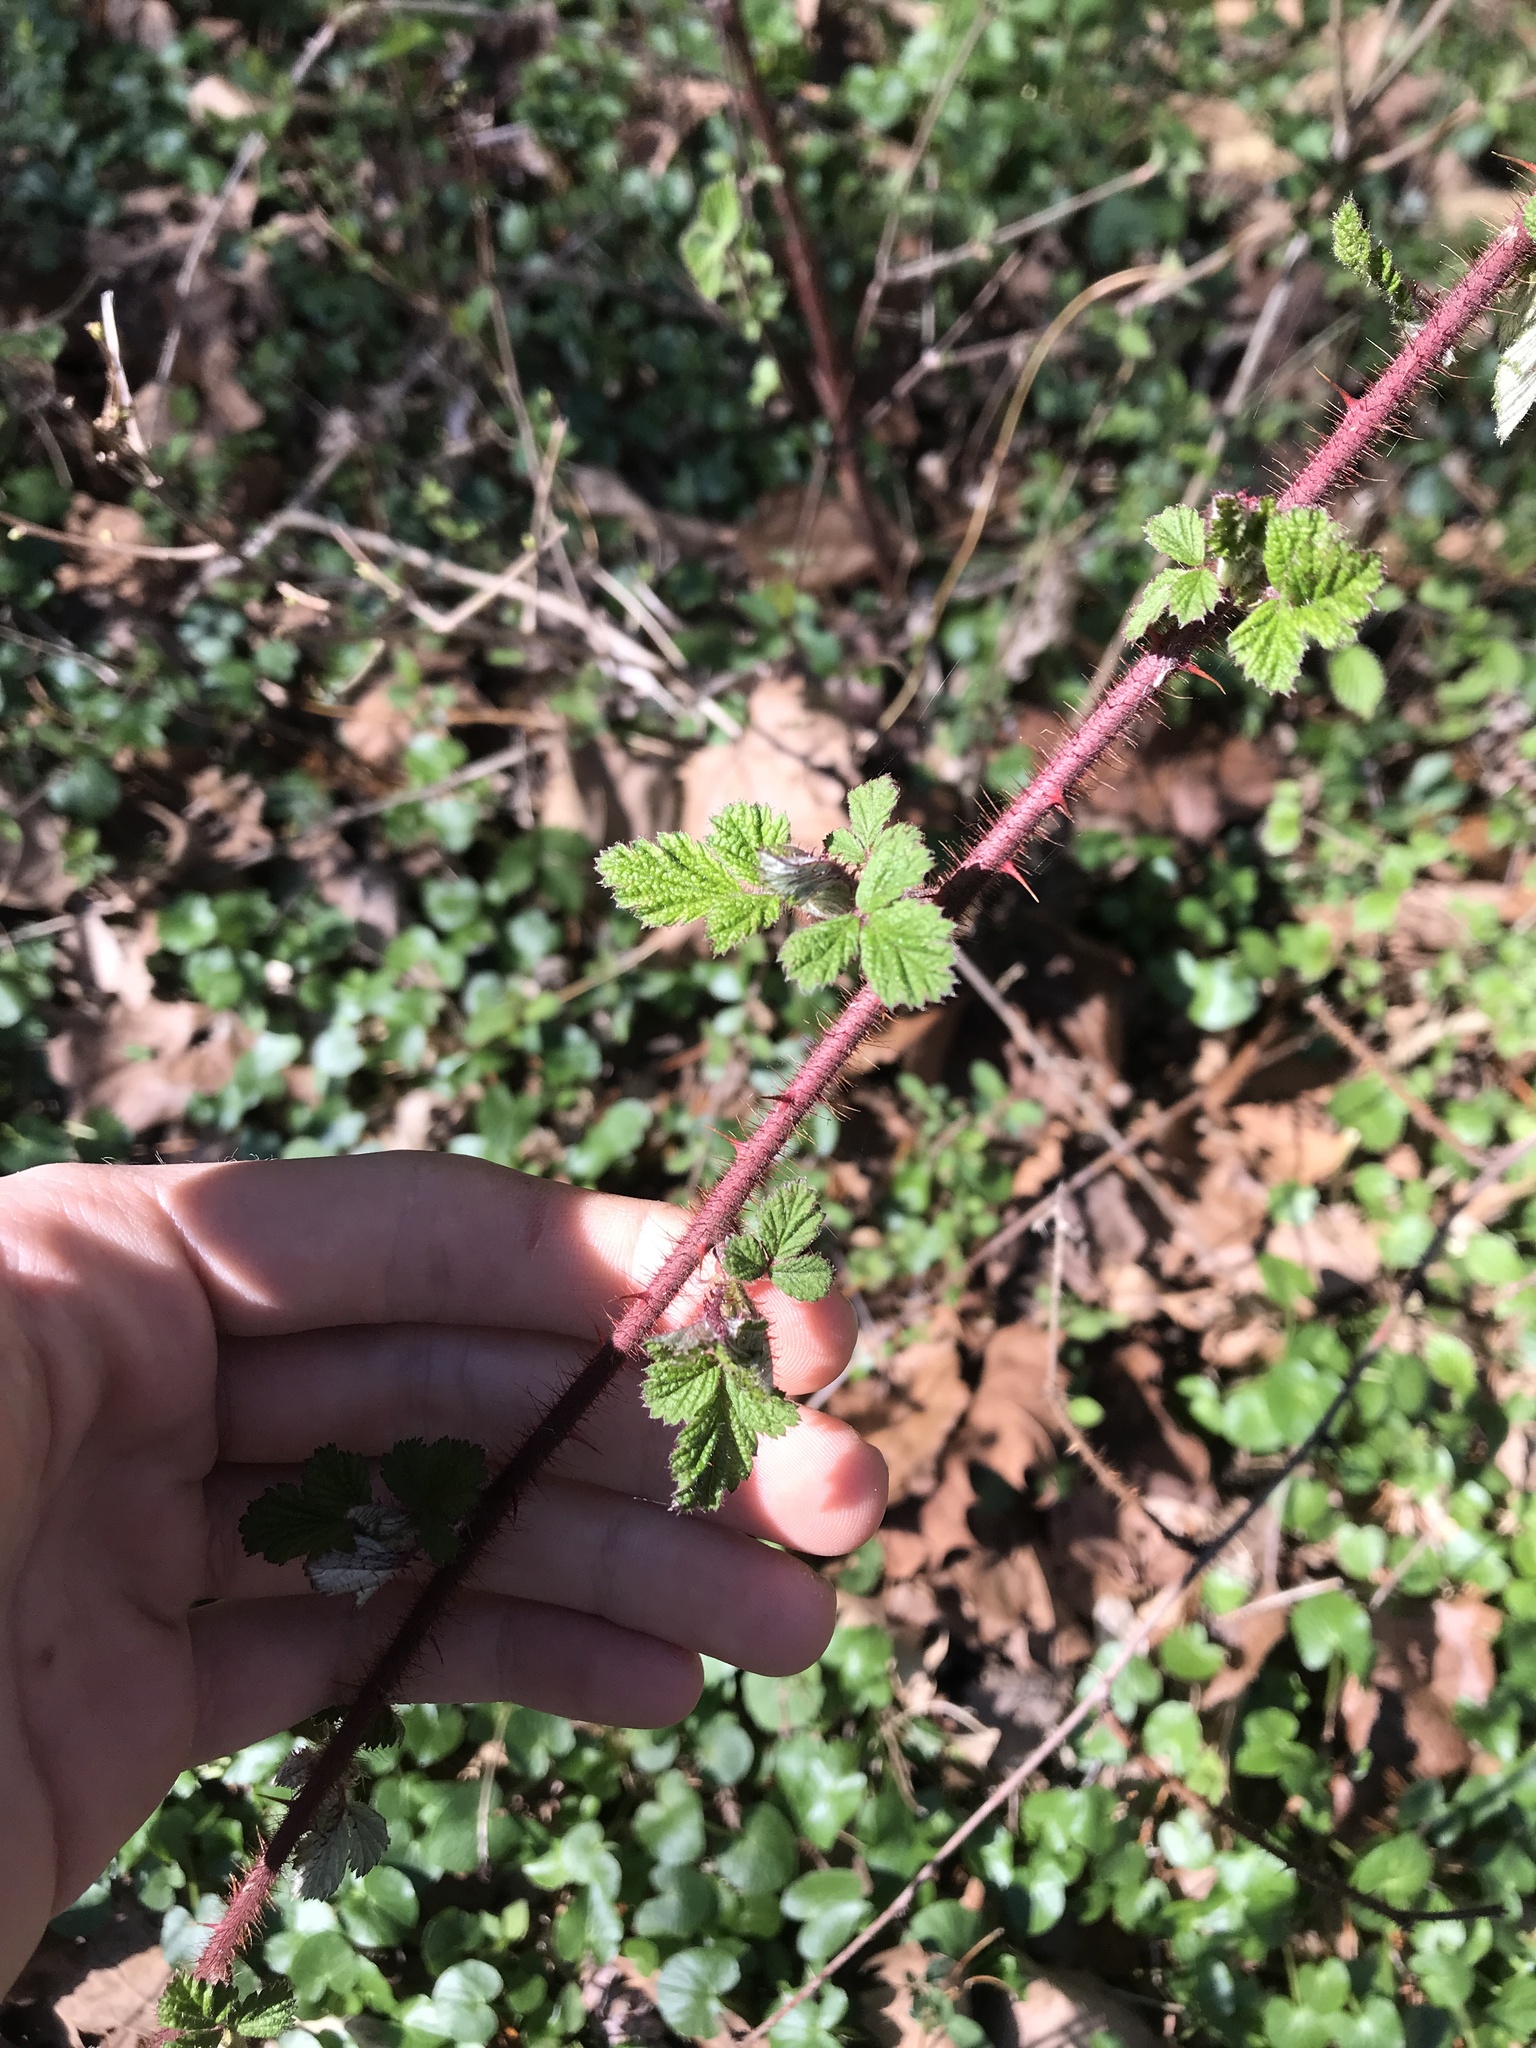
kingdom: Plantae
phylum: Tracheophyta
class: Magnoliopsida
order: Rosales
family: Rosaceae
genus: Rubus
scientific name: Rubus phoenicolasius
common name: Japanese wineberry
